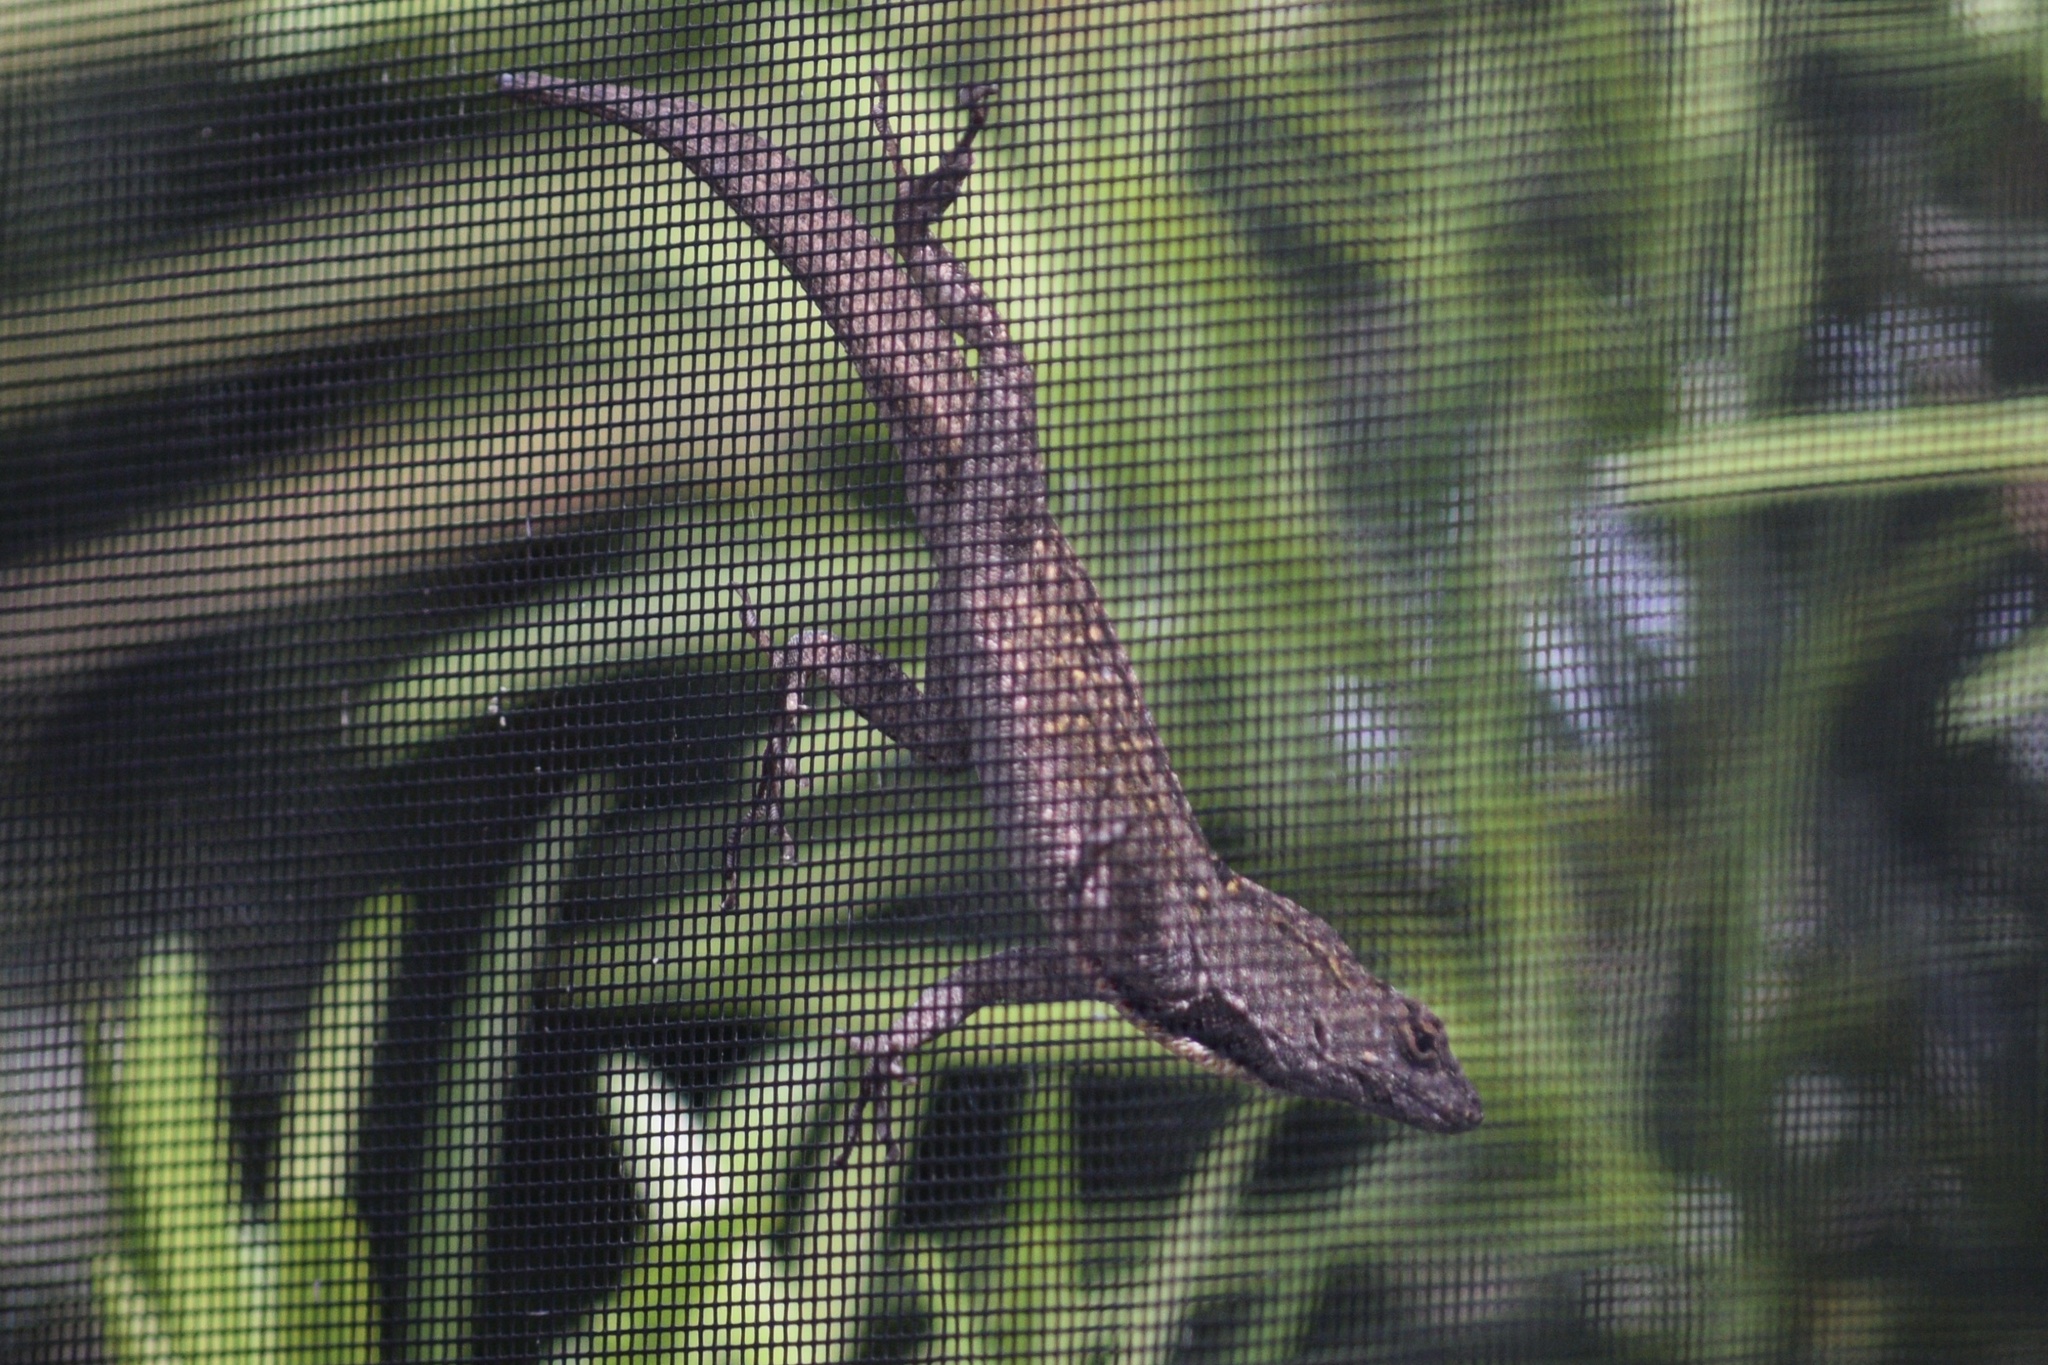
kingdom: Animalia
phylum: Chordata
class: Squamata
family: Dactyloidae
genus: Anolis
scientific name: Anolis sagrei
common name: Brown anole
